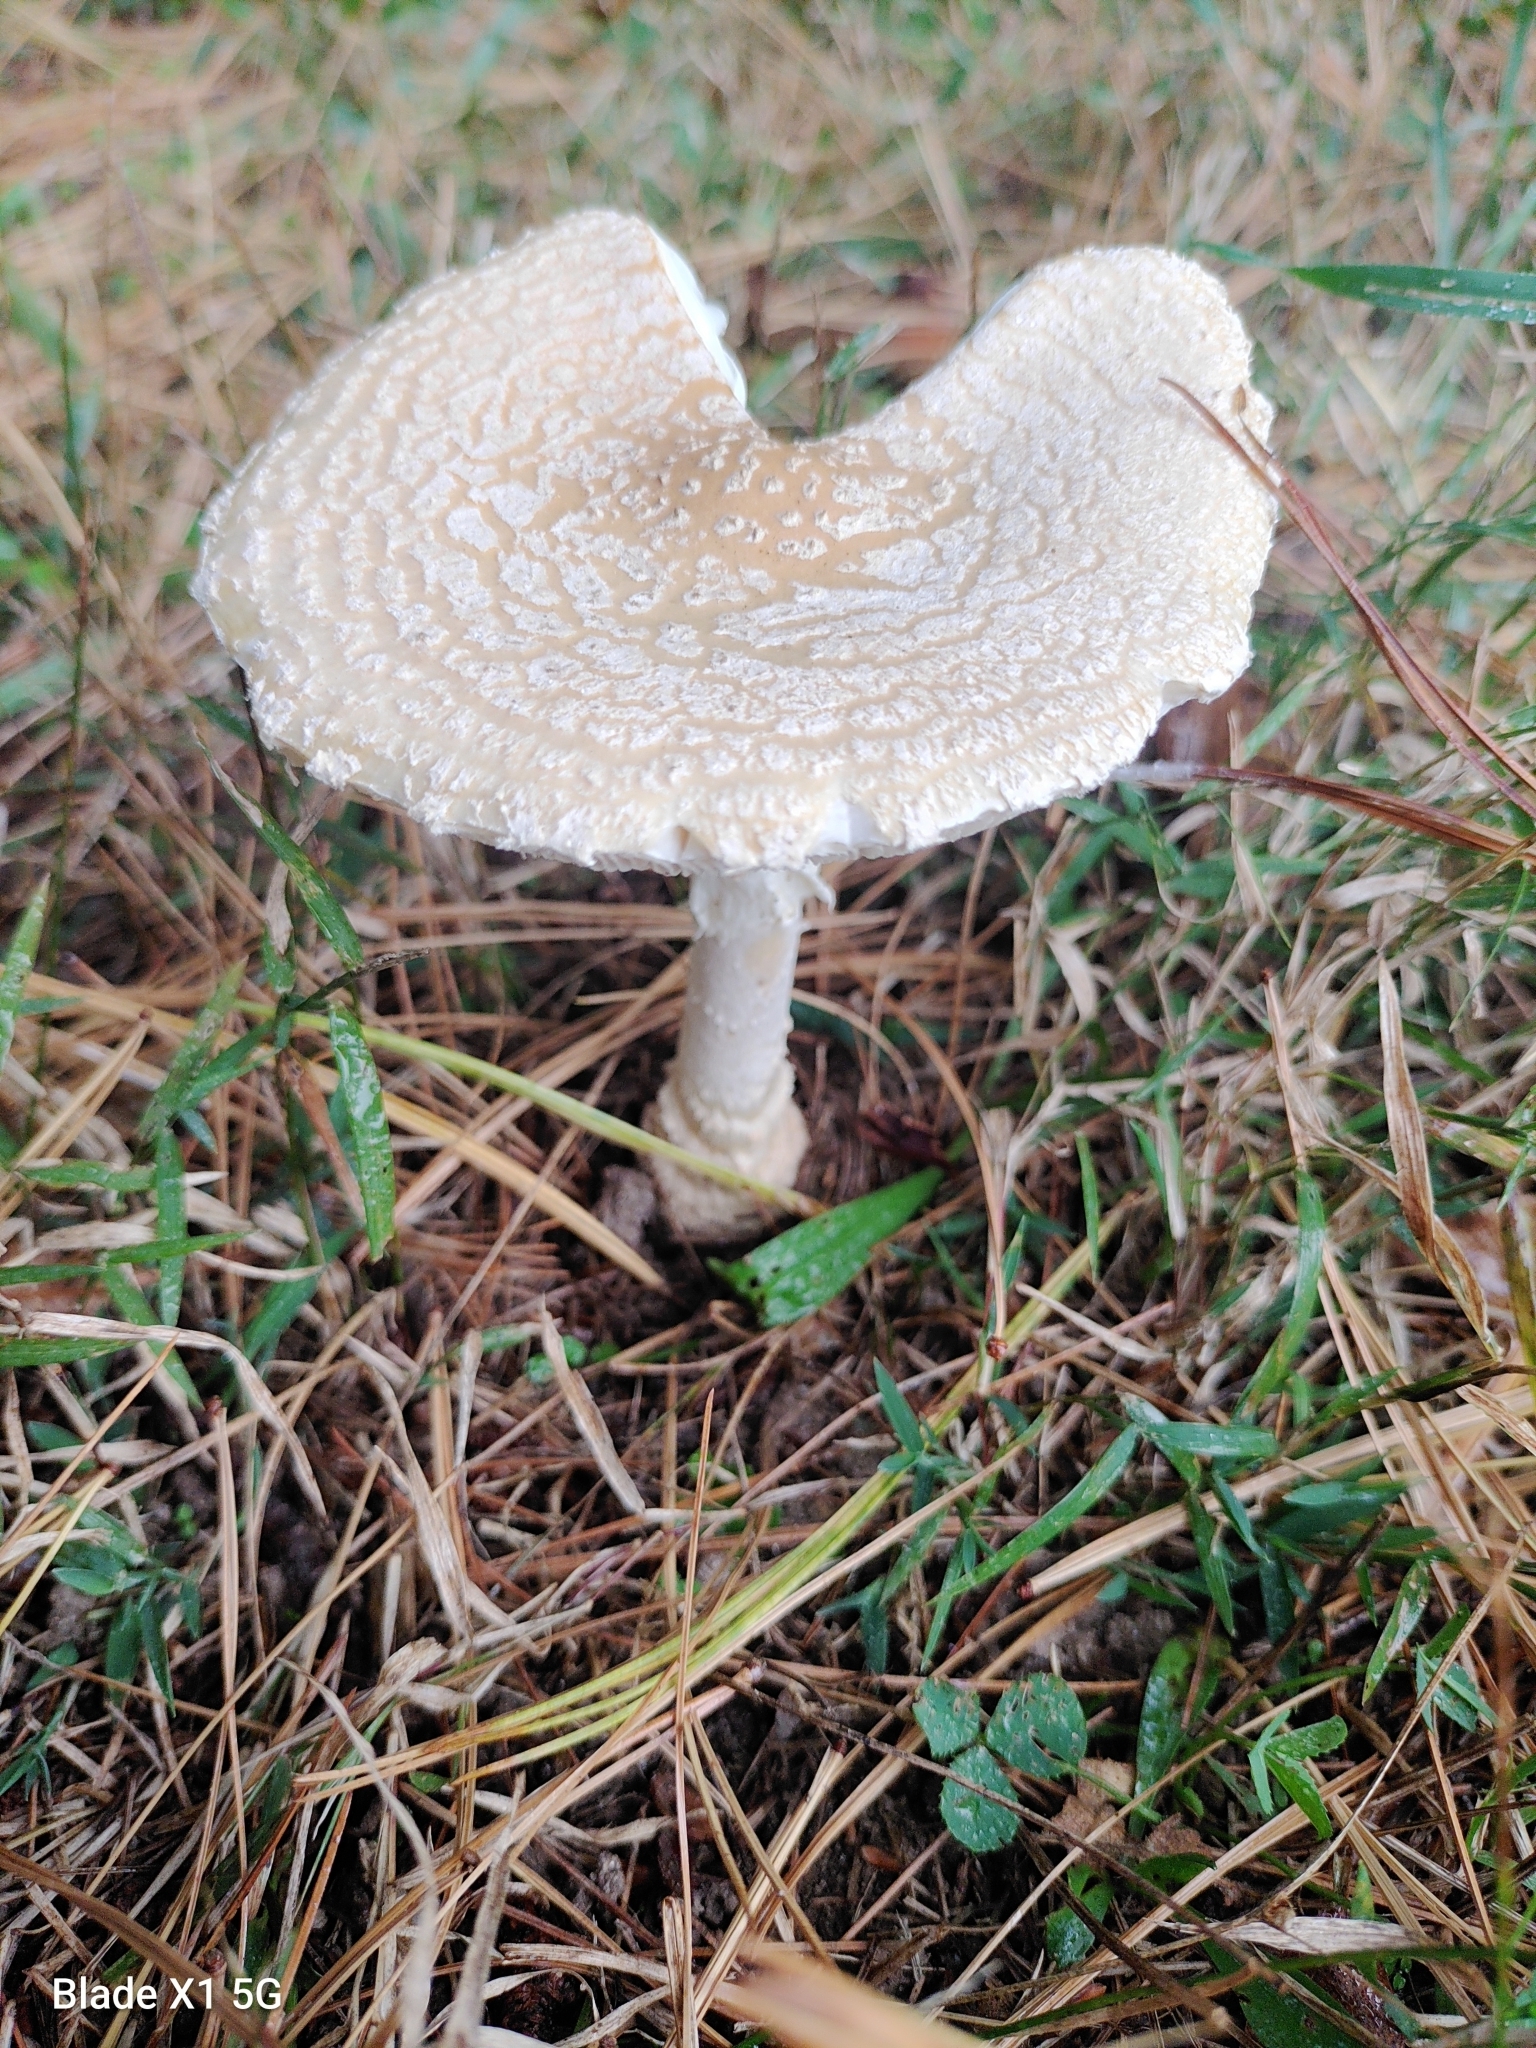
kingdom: Fungi
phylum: Basidiomycota
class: Agaricomycetes
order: Agaricales
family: Amanitaceae
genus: Amanita
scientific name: Amanita muscaria
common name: Fly agaric
